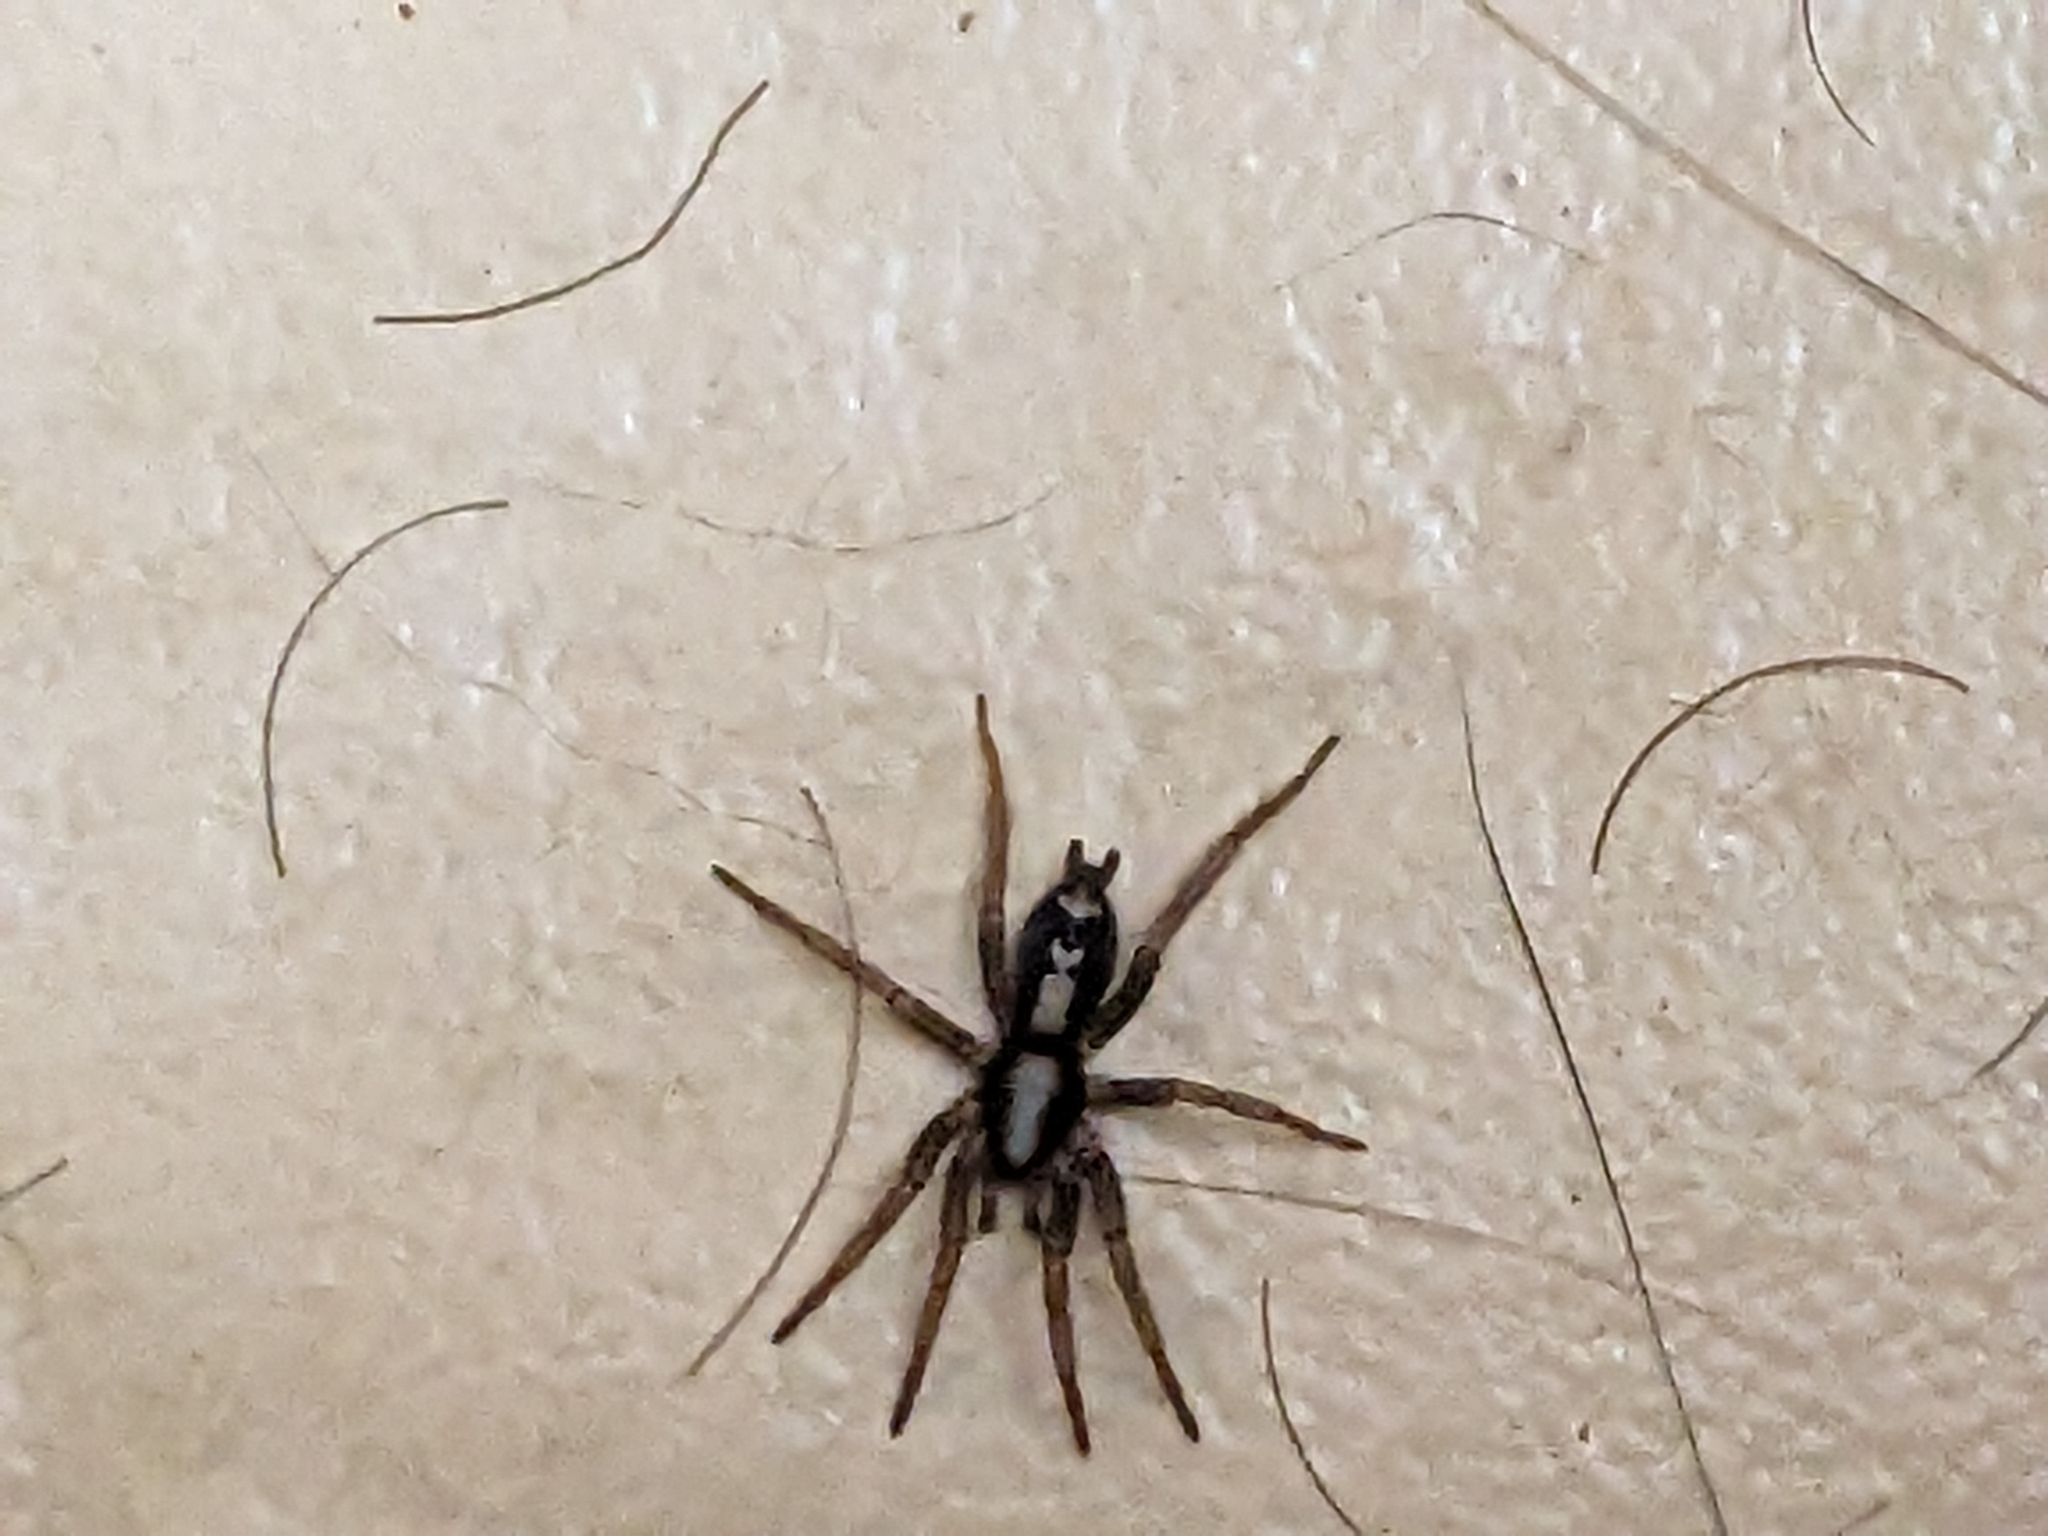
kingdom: Animalia
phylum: Arthropoda
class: Arachnida
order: Araneae
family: Gnaphosidae
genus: Herpyllus
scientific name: Herpyllus ecclesiasticus
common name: Eastern parson spider
